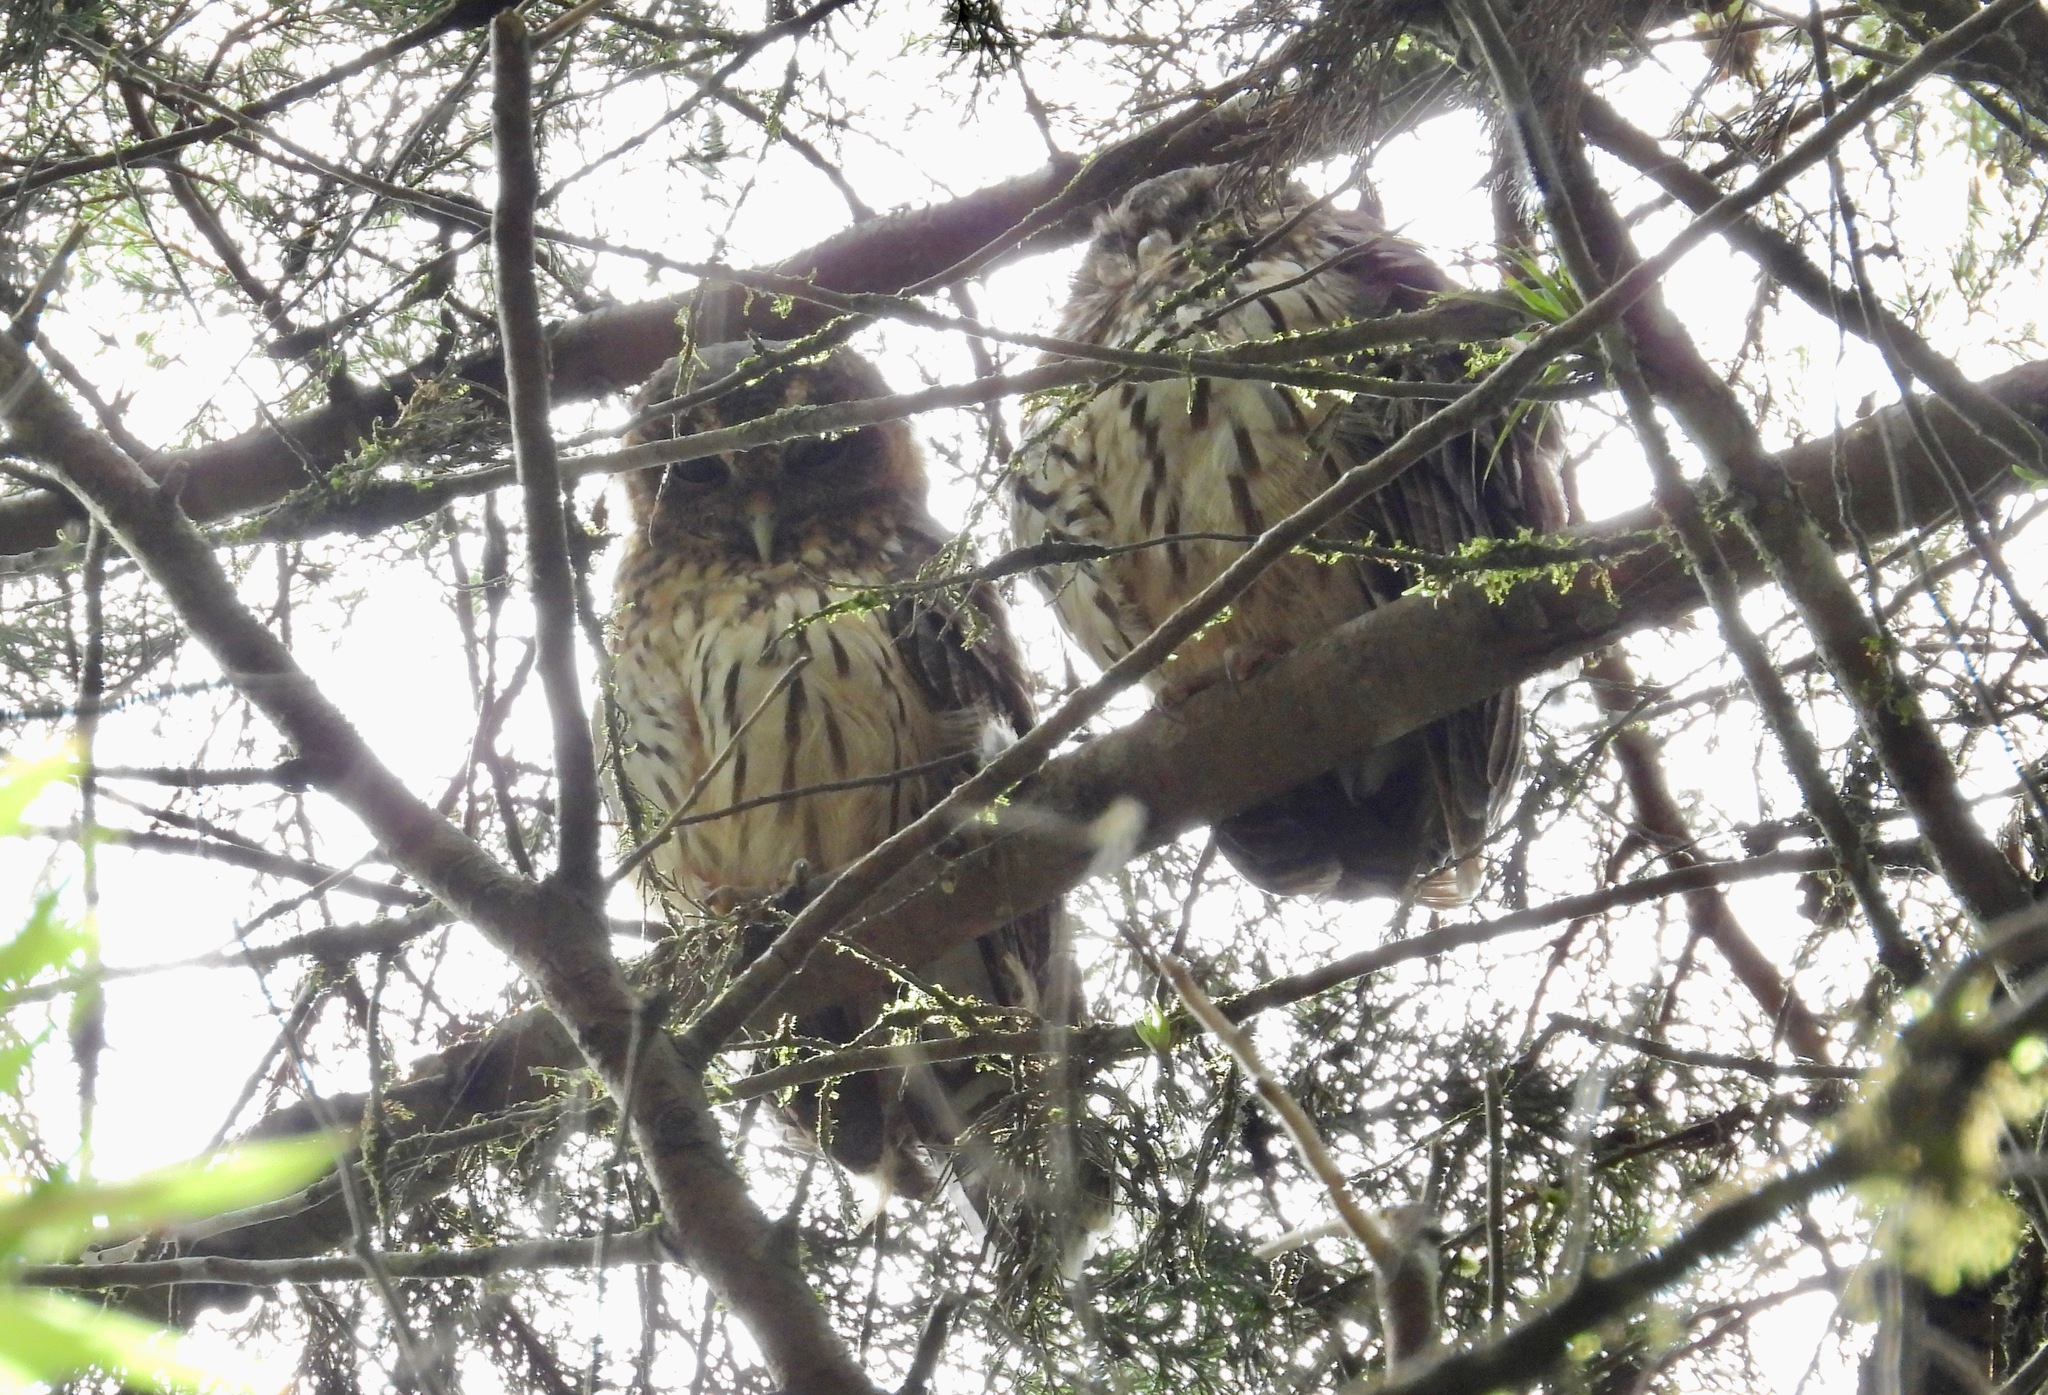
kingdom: Animalia
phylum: Chordata
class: Aves
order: Strigiformes
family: Strigidae
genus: Strix
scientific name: Strix virgata
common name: Mottled owl
